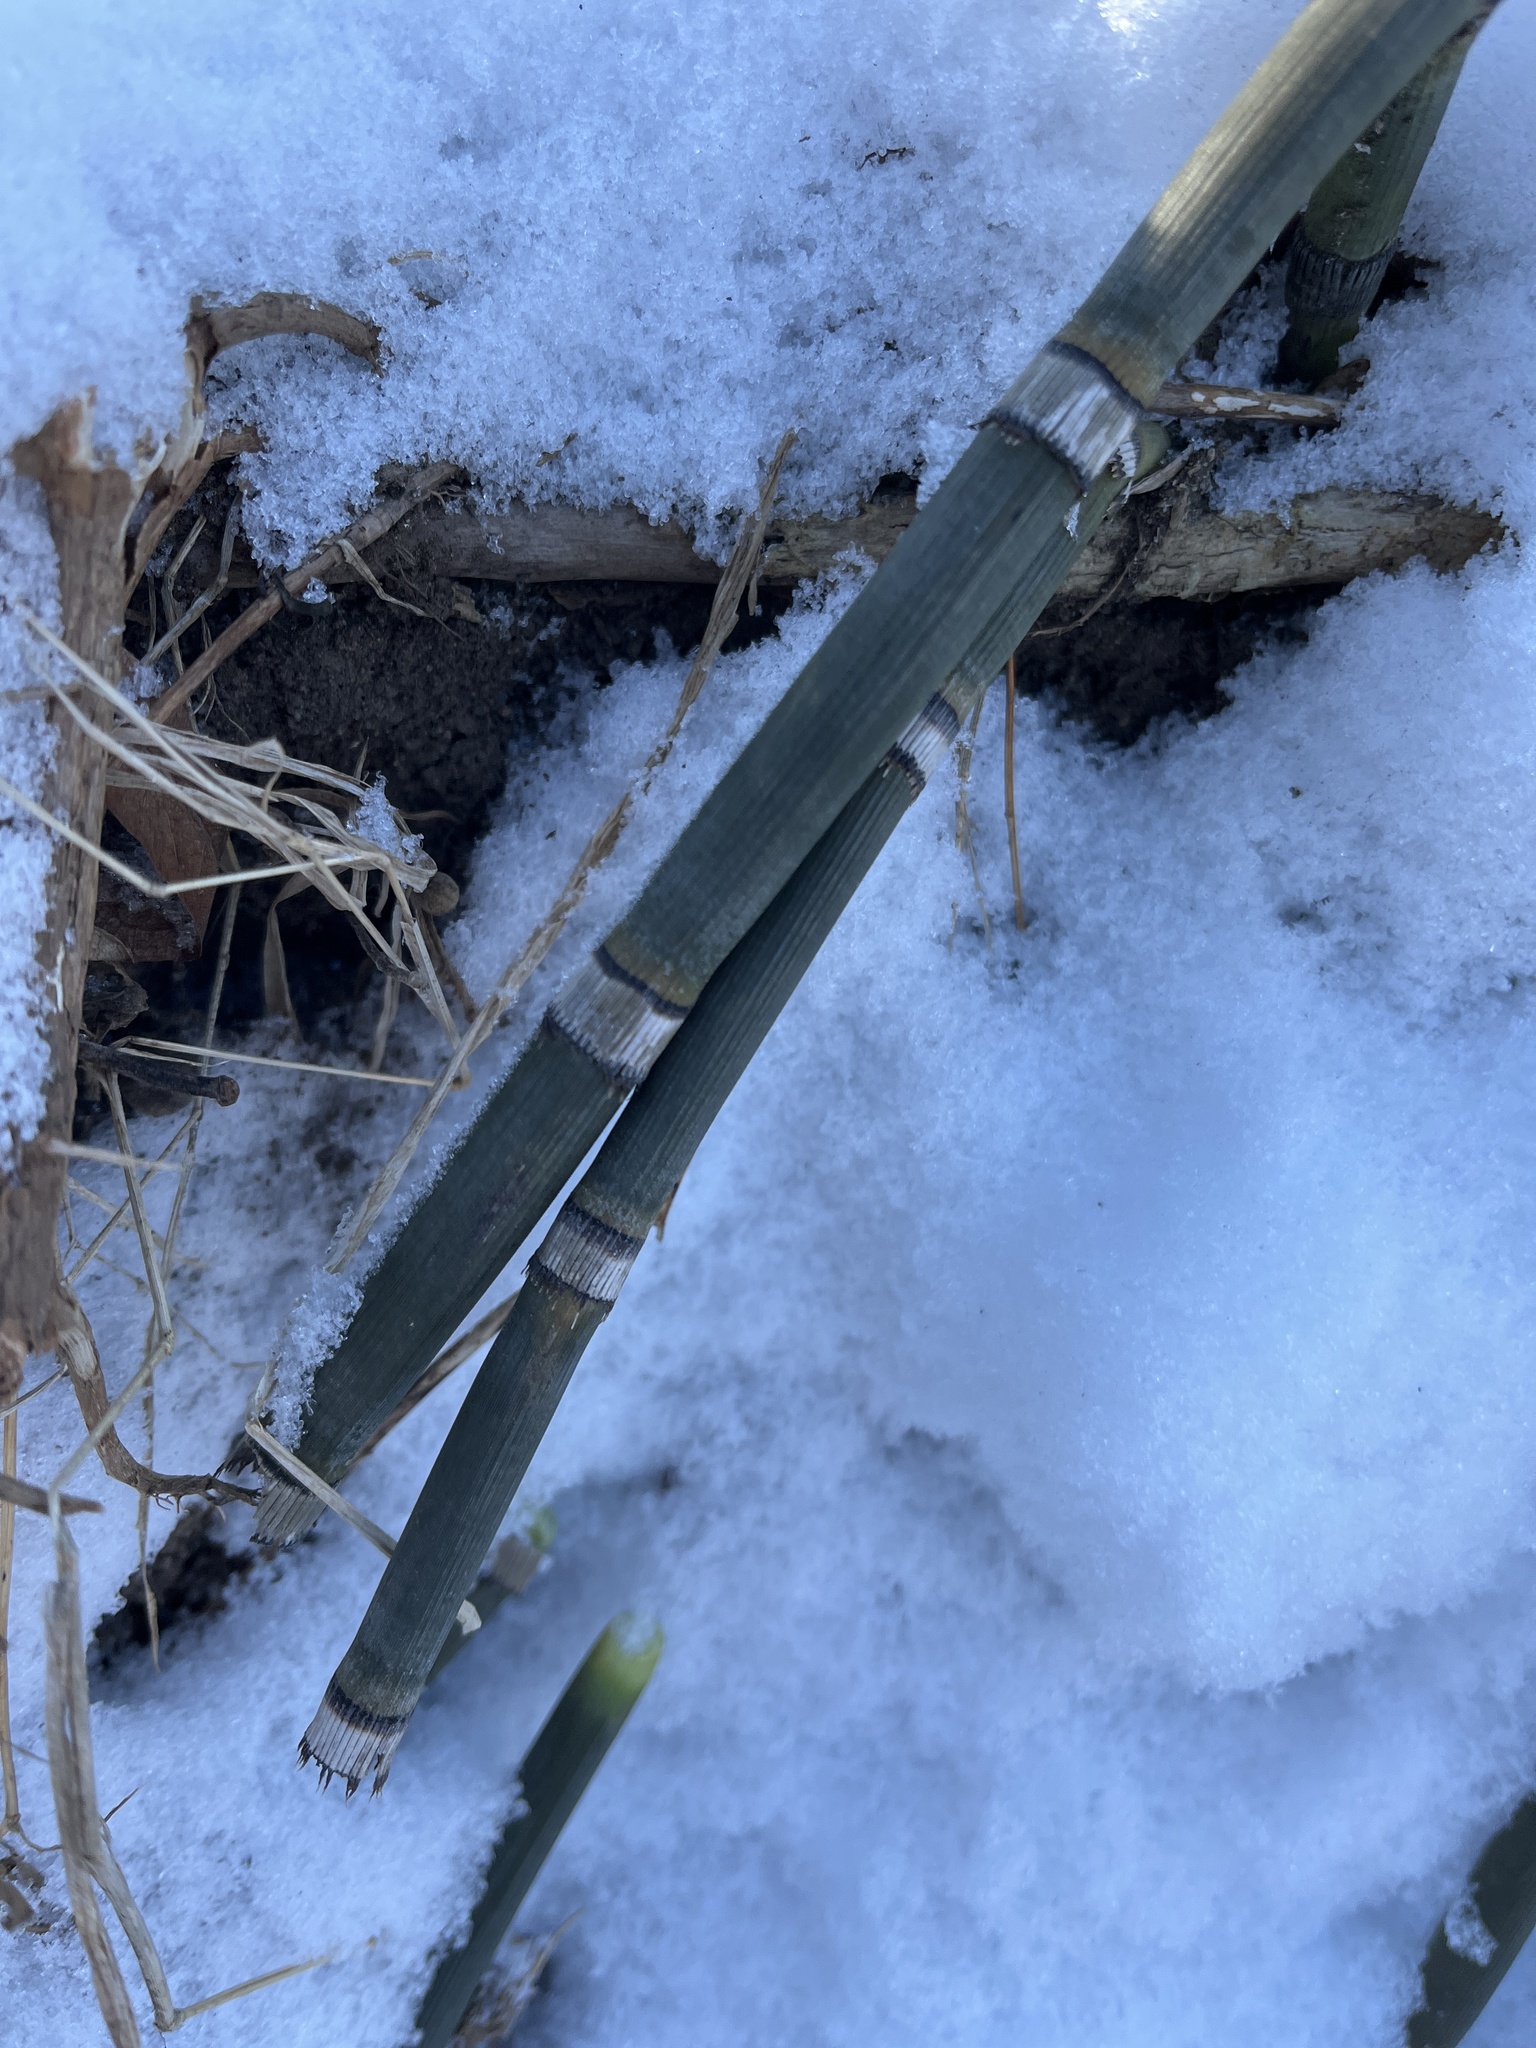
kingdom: Plantae
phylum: Tracheophyta
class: Polypodiopsida
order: Equisetales
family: Equisetaceae
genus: Equisetum
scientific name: Equisetum praealtum
